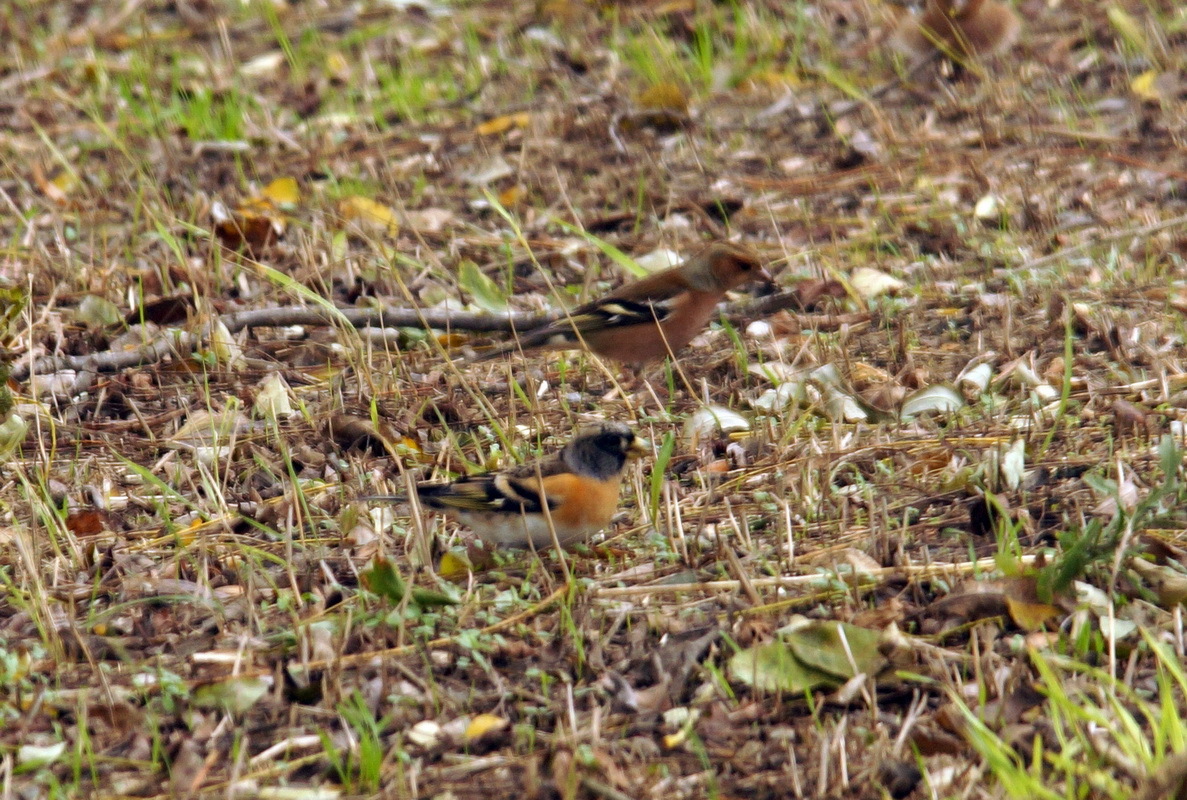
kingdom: Animalia
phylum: Chordata
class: Aves
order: Passeriformes
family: Fringillidae
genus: Fringilla
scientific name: Fringilla montifringilla
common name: Brambling
